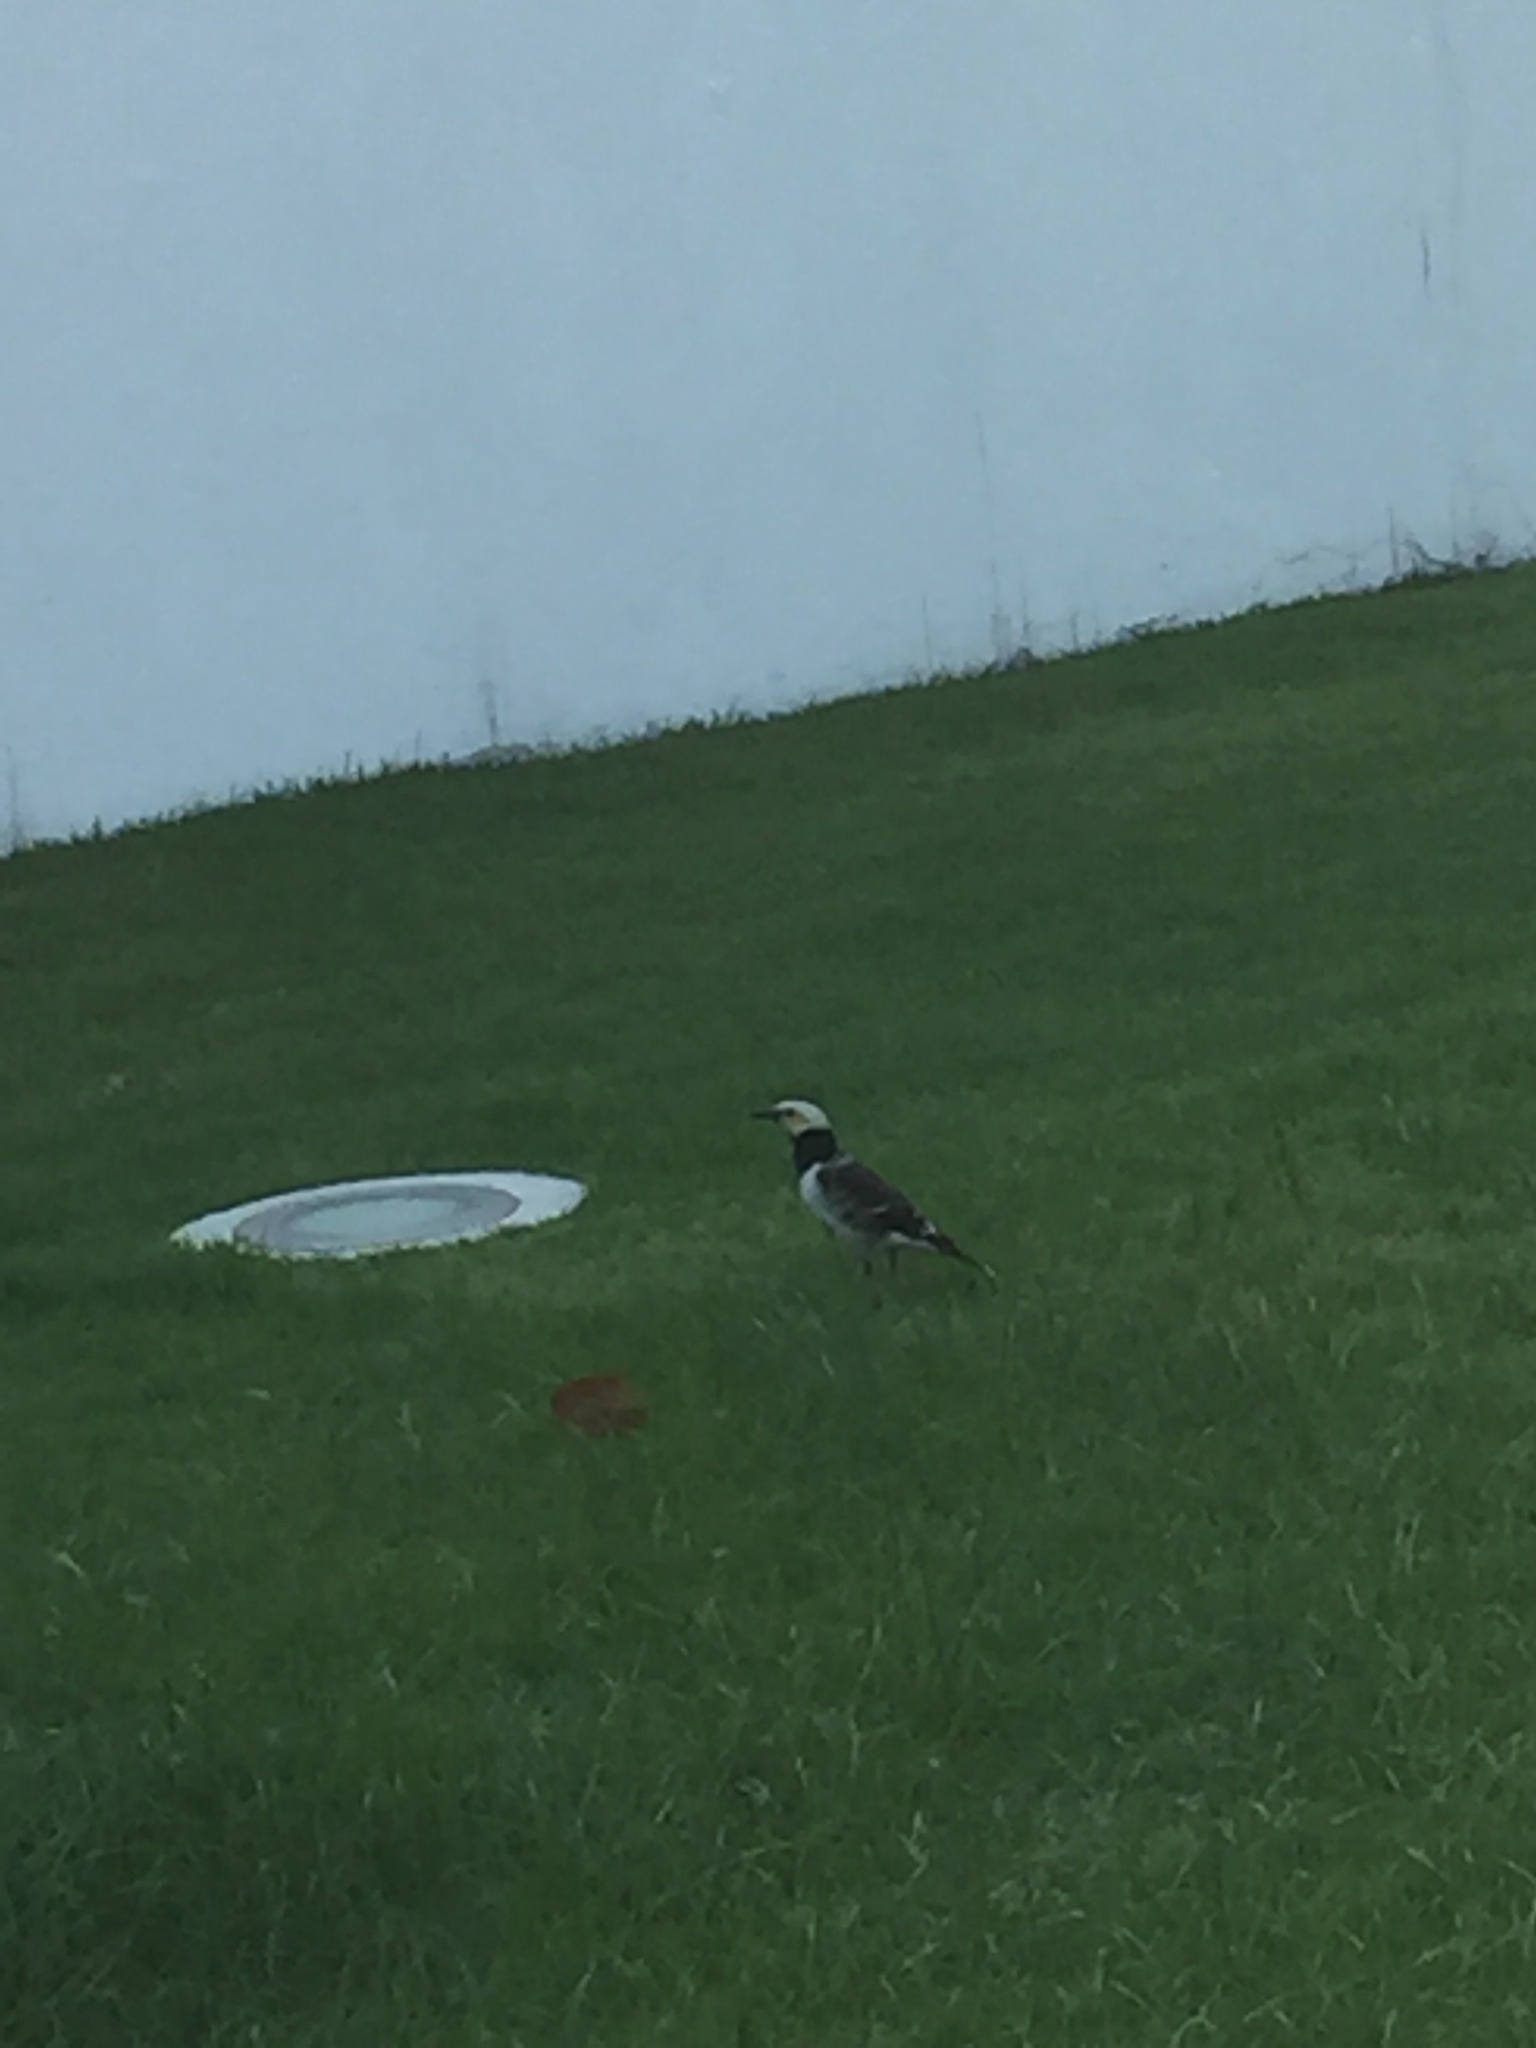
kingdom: Animalia
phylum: Chordata
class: Aves
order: Passeriformes
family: Sturnidae
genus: Gracupica
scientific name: Gracupica nigricollis
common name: Black-collared starling
